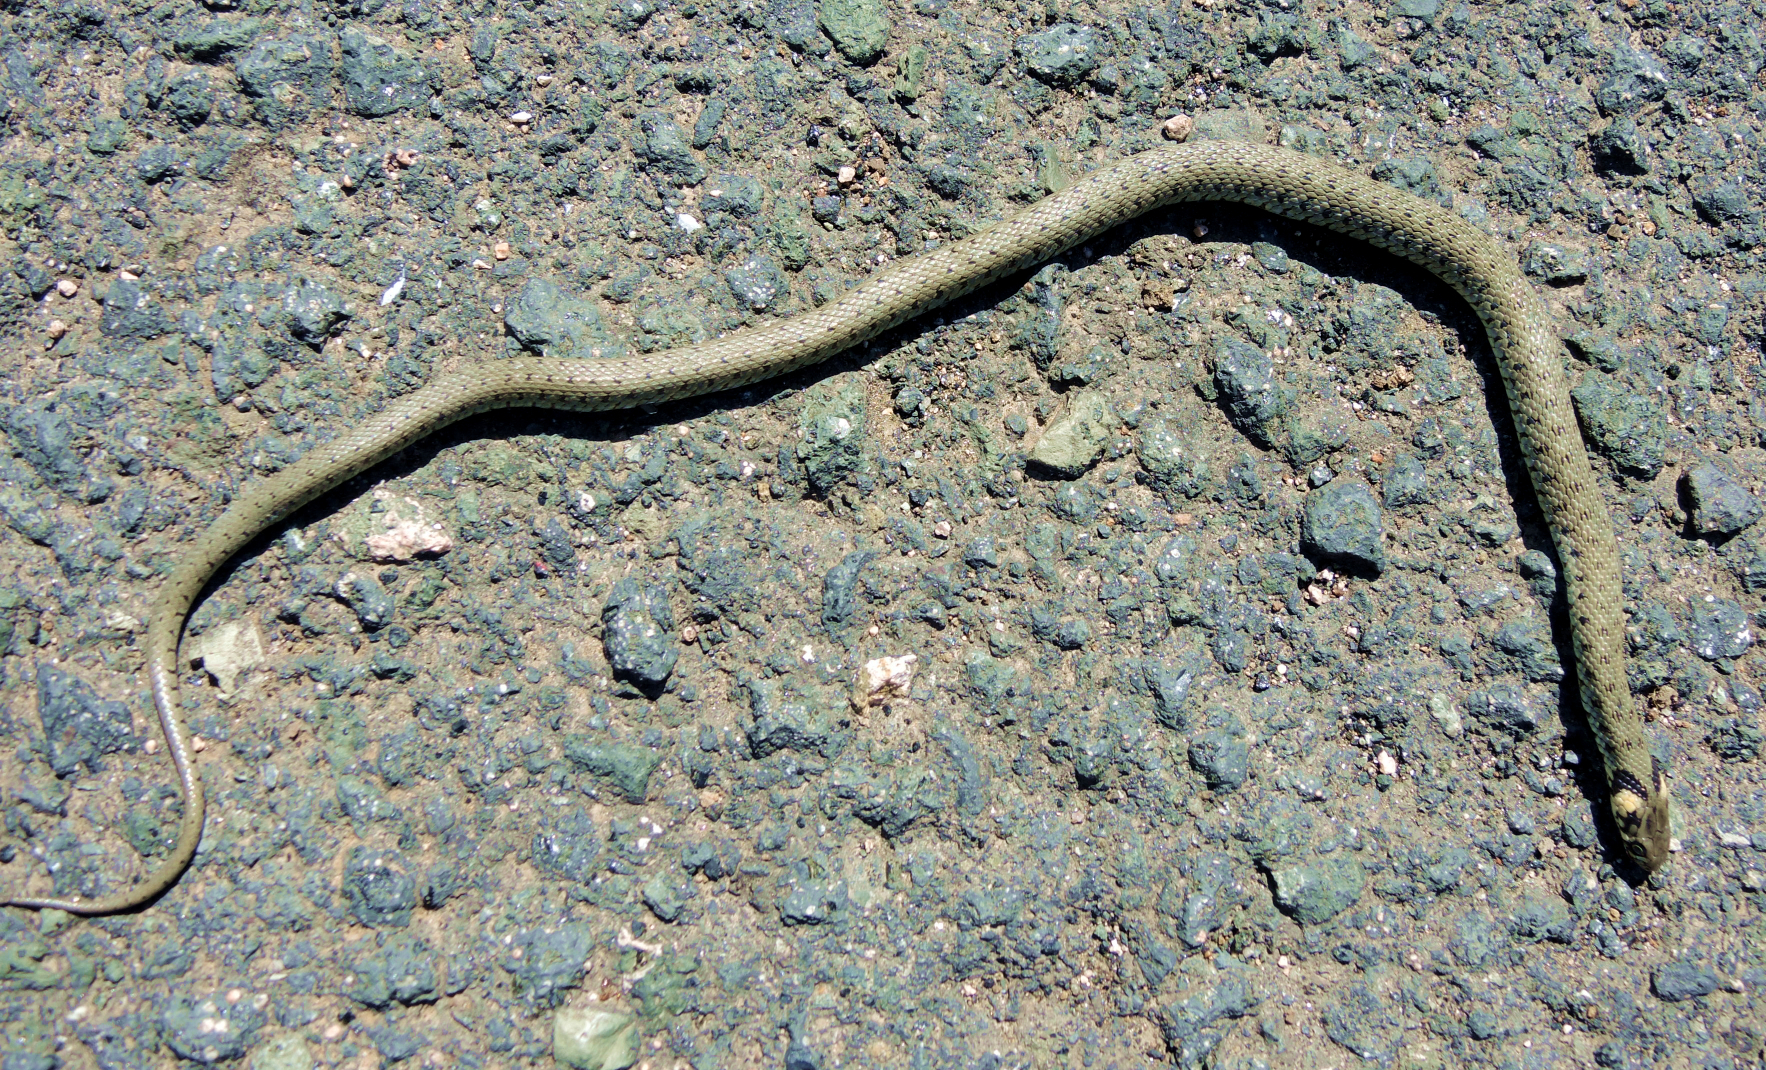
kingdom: Animalia
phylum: Chordata
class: Squamata
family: Colubridae
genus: Natrix
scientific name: Natrix natrix
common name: Grass snake
